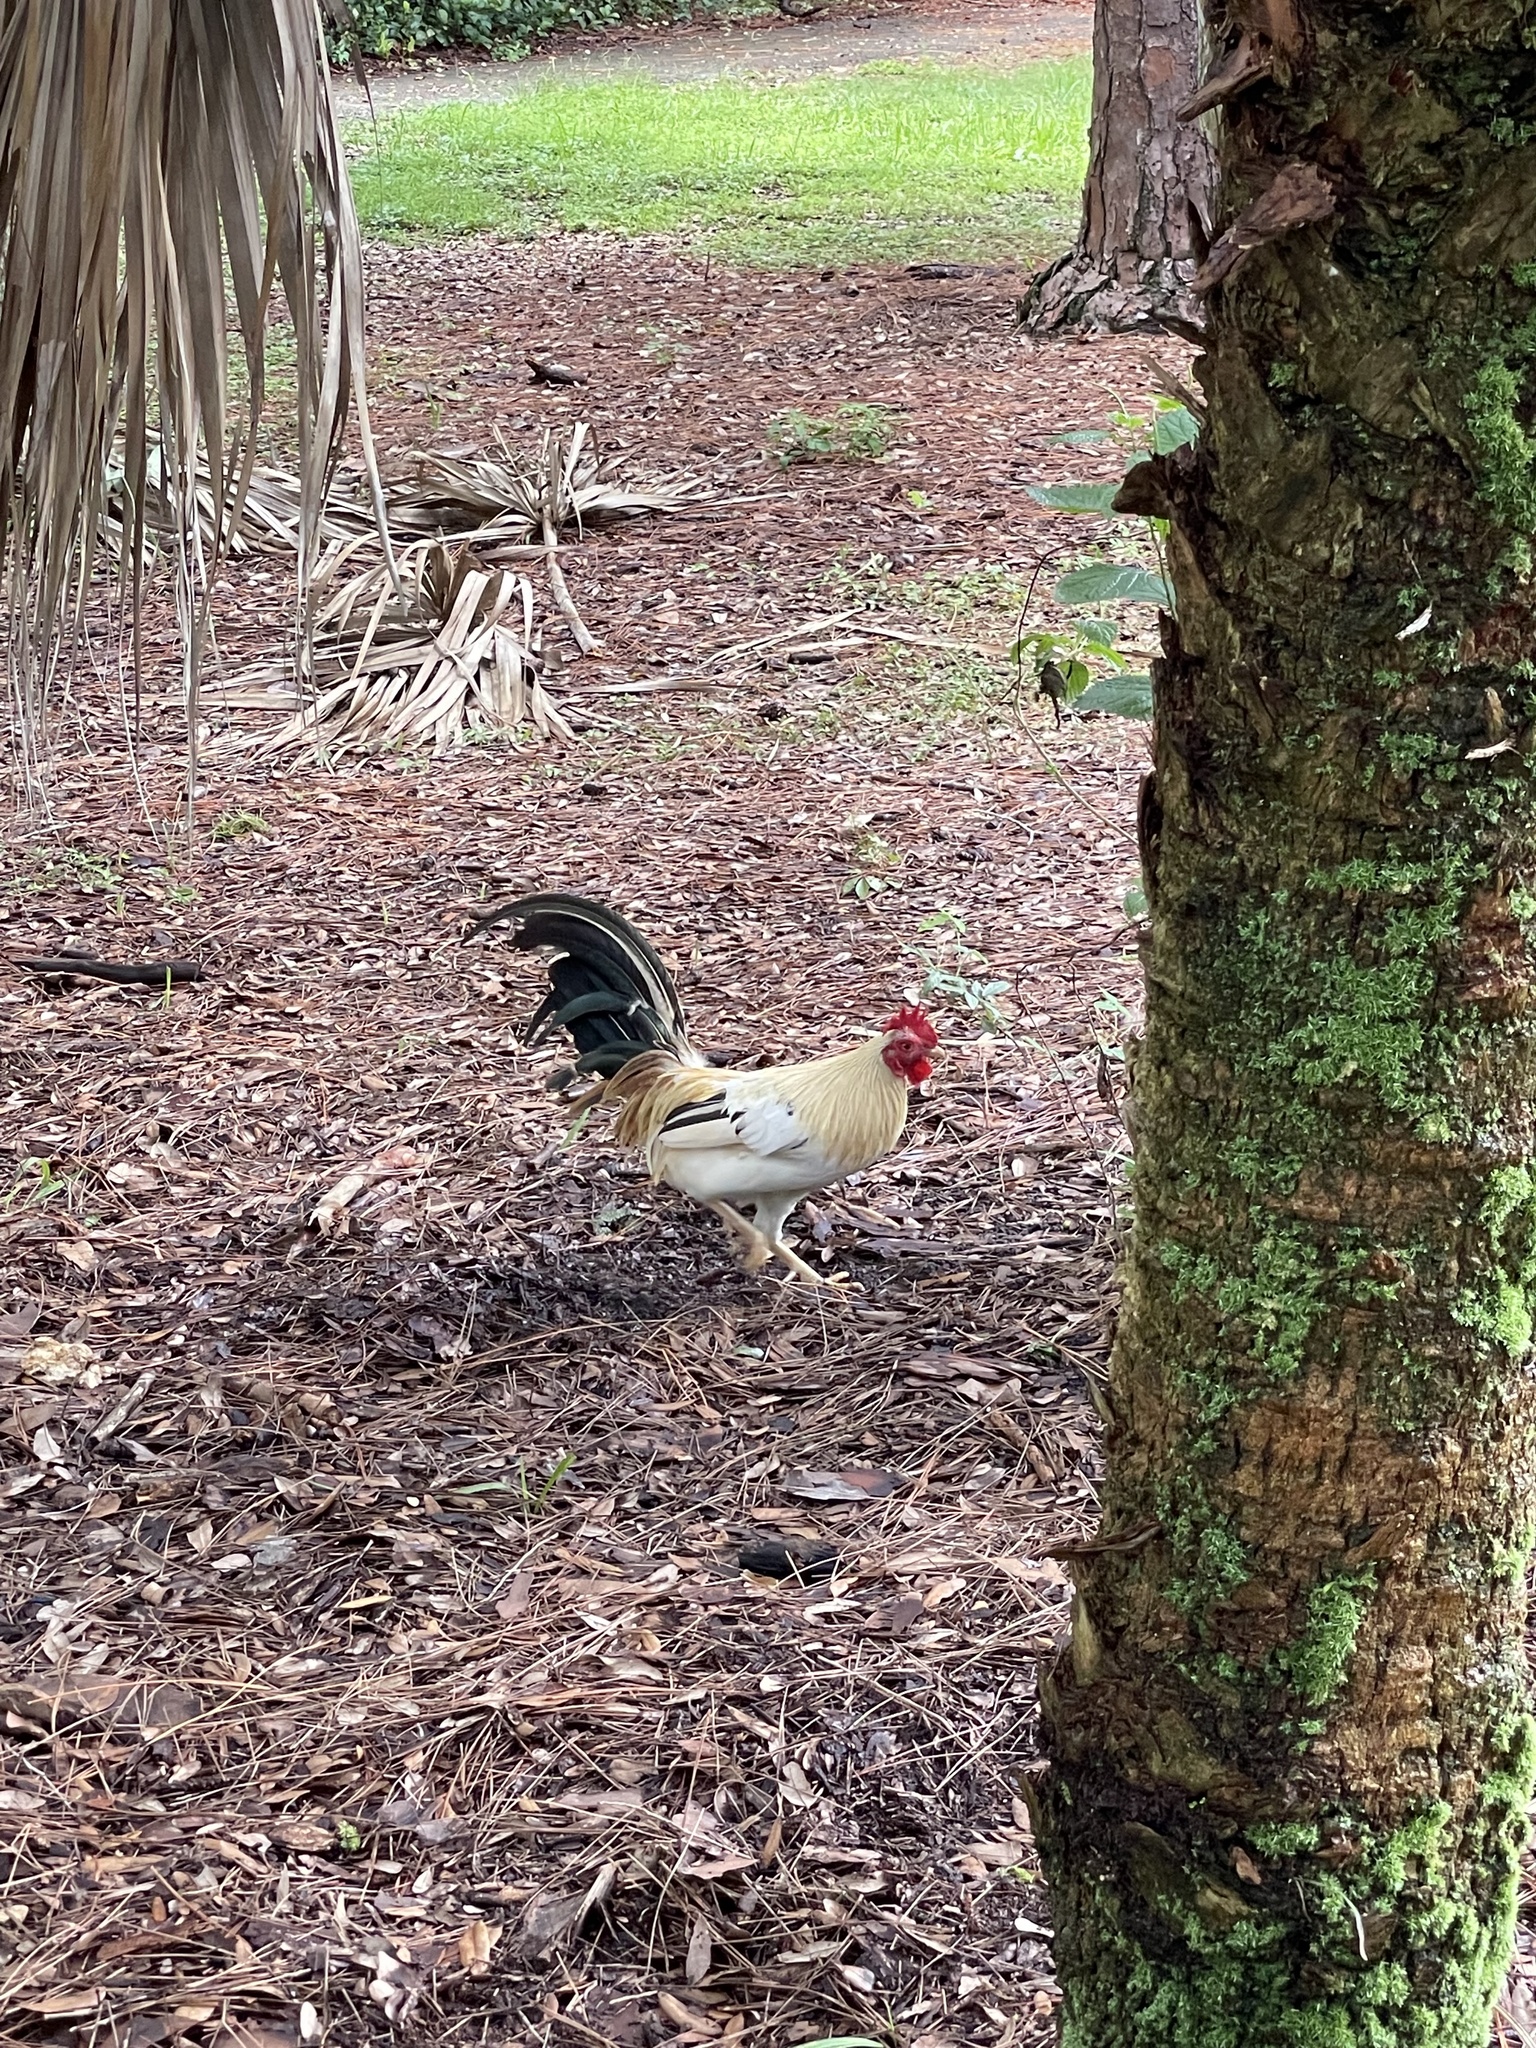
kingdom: Animalia
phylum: Chordata
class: Aves
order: Galliformes
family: Phasianidae
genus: Gallus
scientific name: Gallus gallus
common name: Red junglefowl
